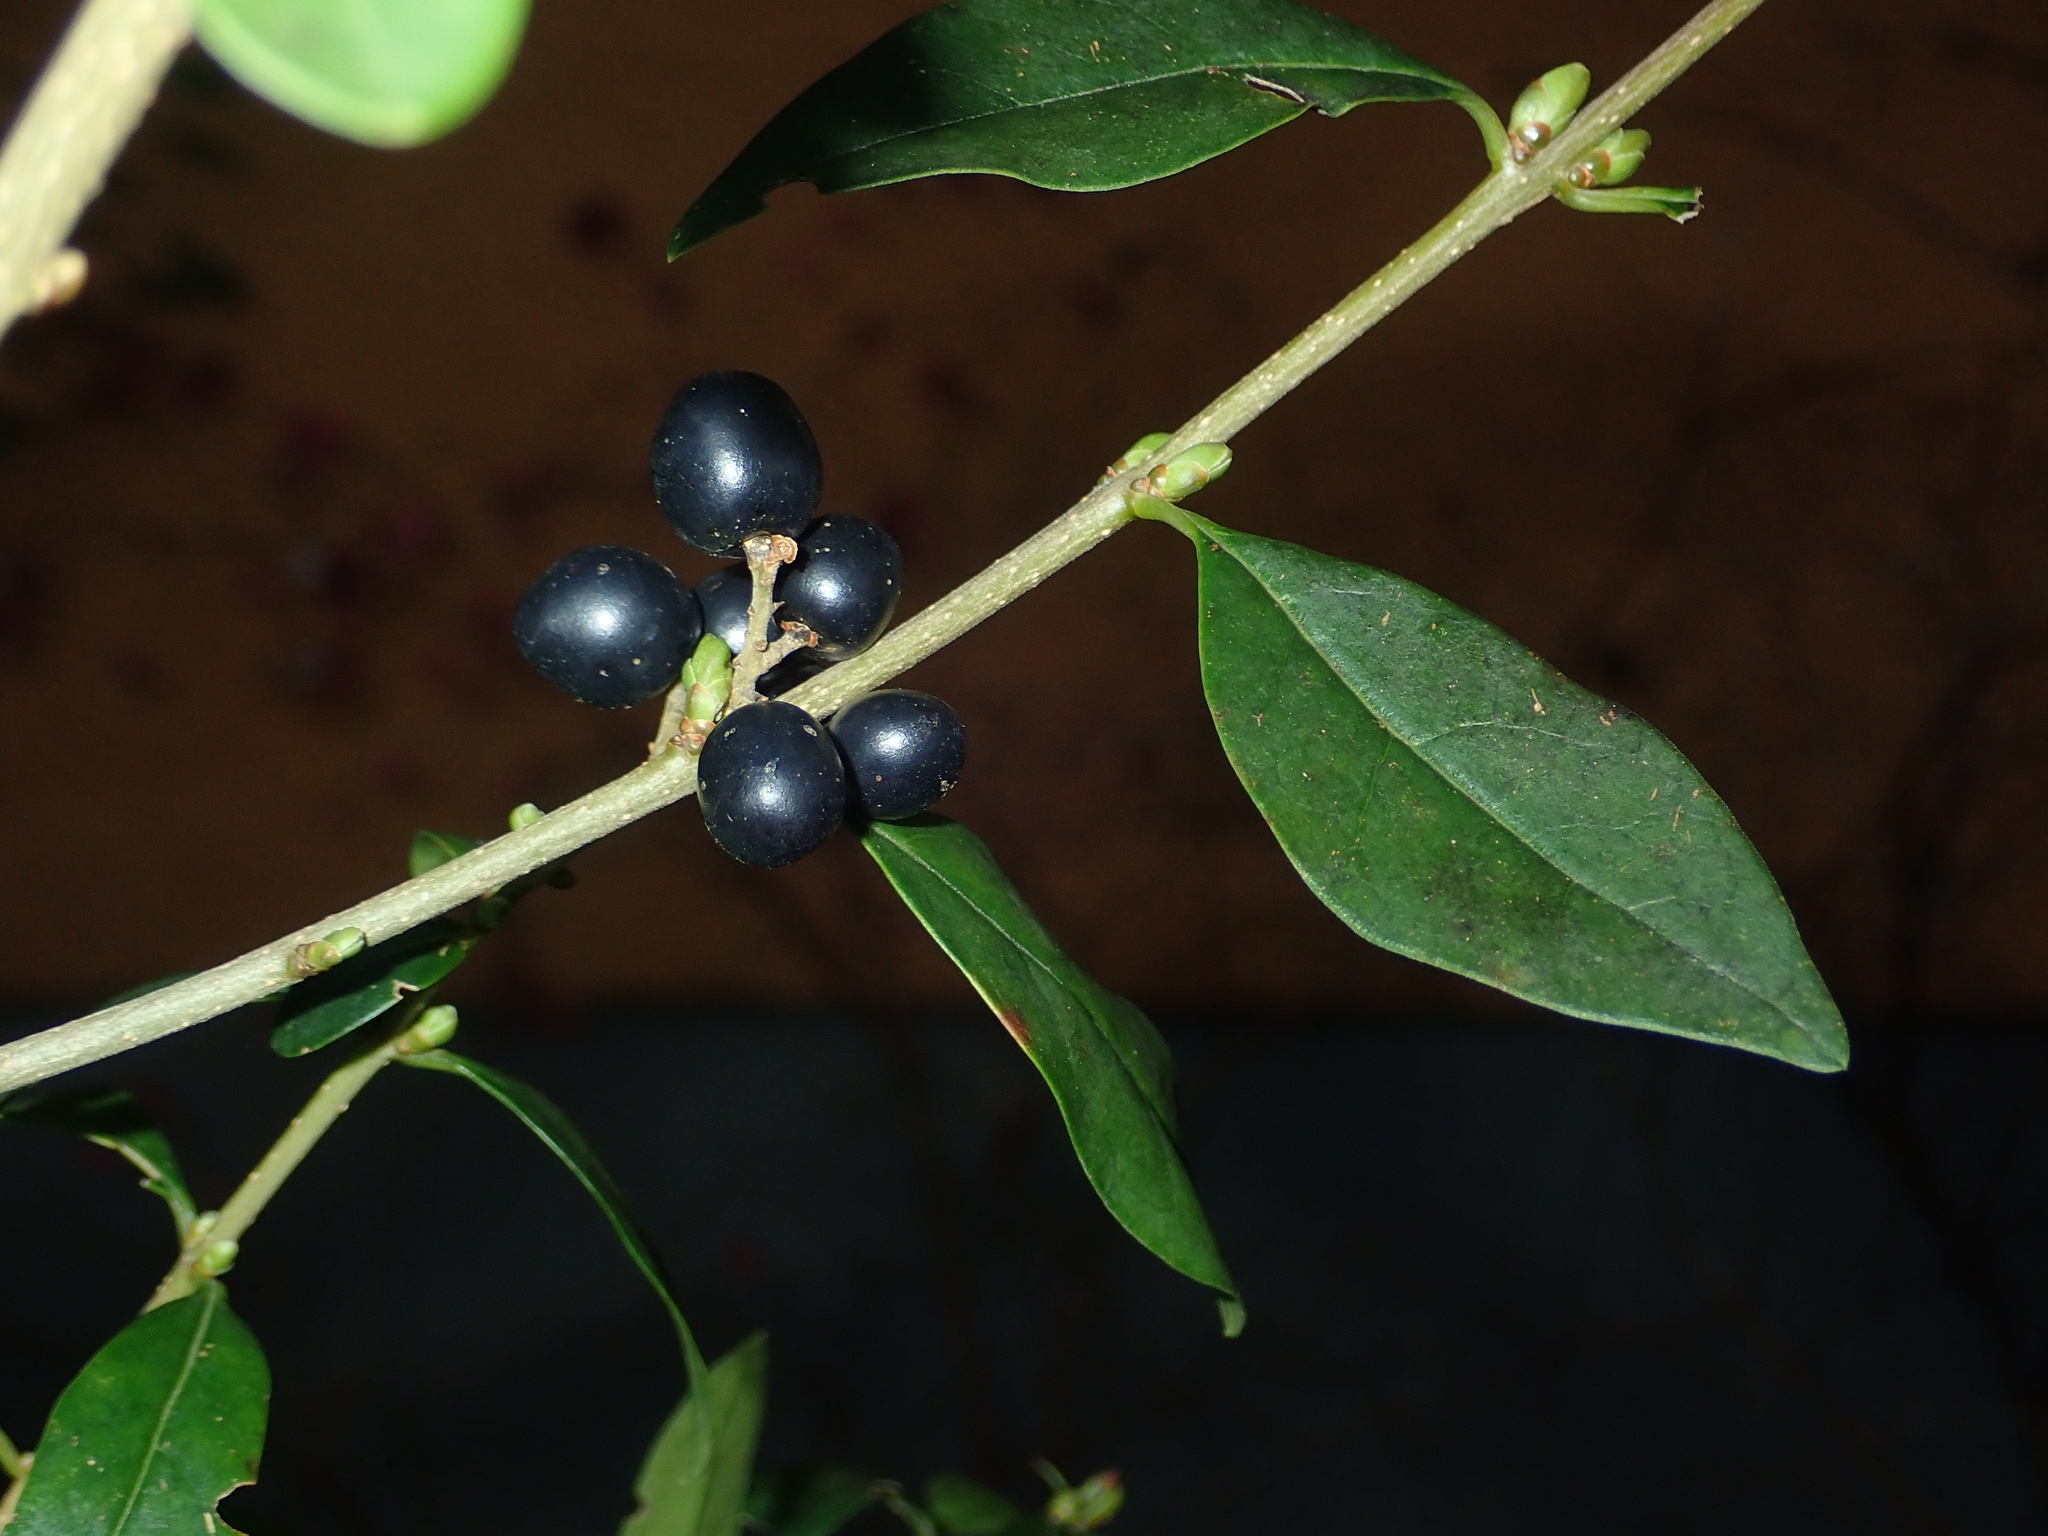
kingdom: Plantae
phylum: Tracheophyta
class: Magnoliopsida
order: Lamiales
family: Oleaceae
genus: Ligustrum
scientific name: Ligustrum vulgare
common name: Wild privet
